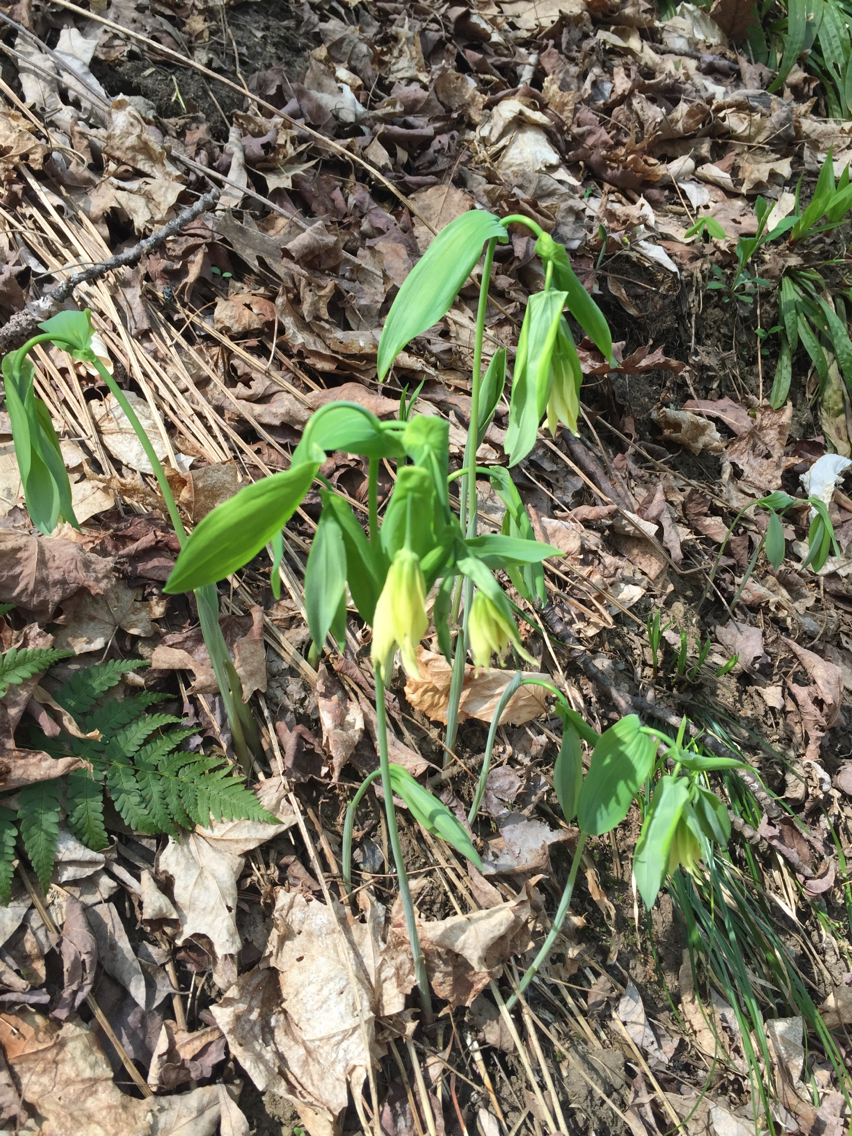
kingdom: Plantae
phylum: Tracheophyta
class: Liliopsida
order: Liliales
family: Colchicaceae
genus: Uvularia
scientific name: Uvularia grandiflora
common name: Bellwort
